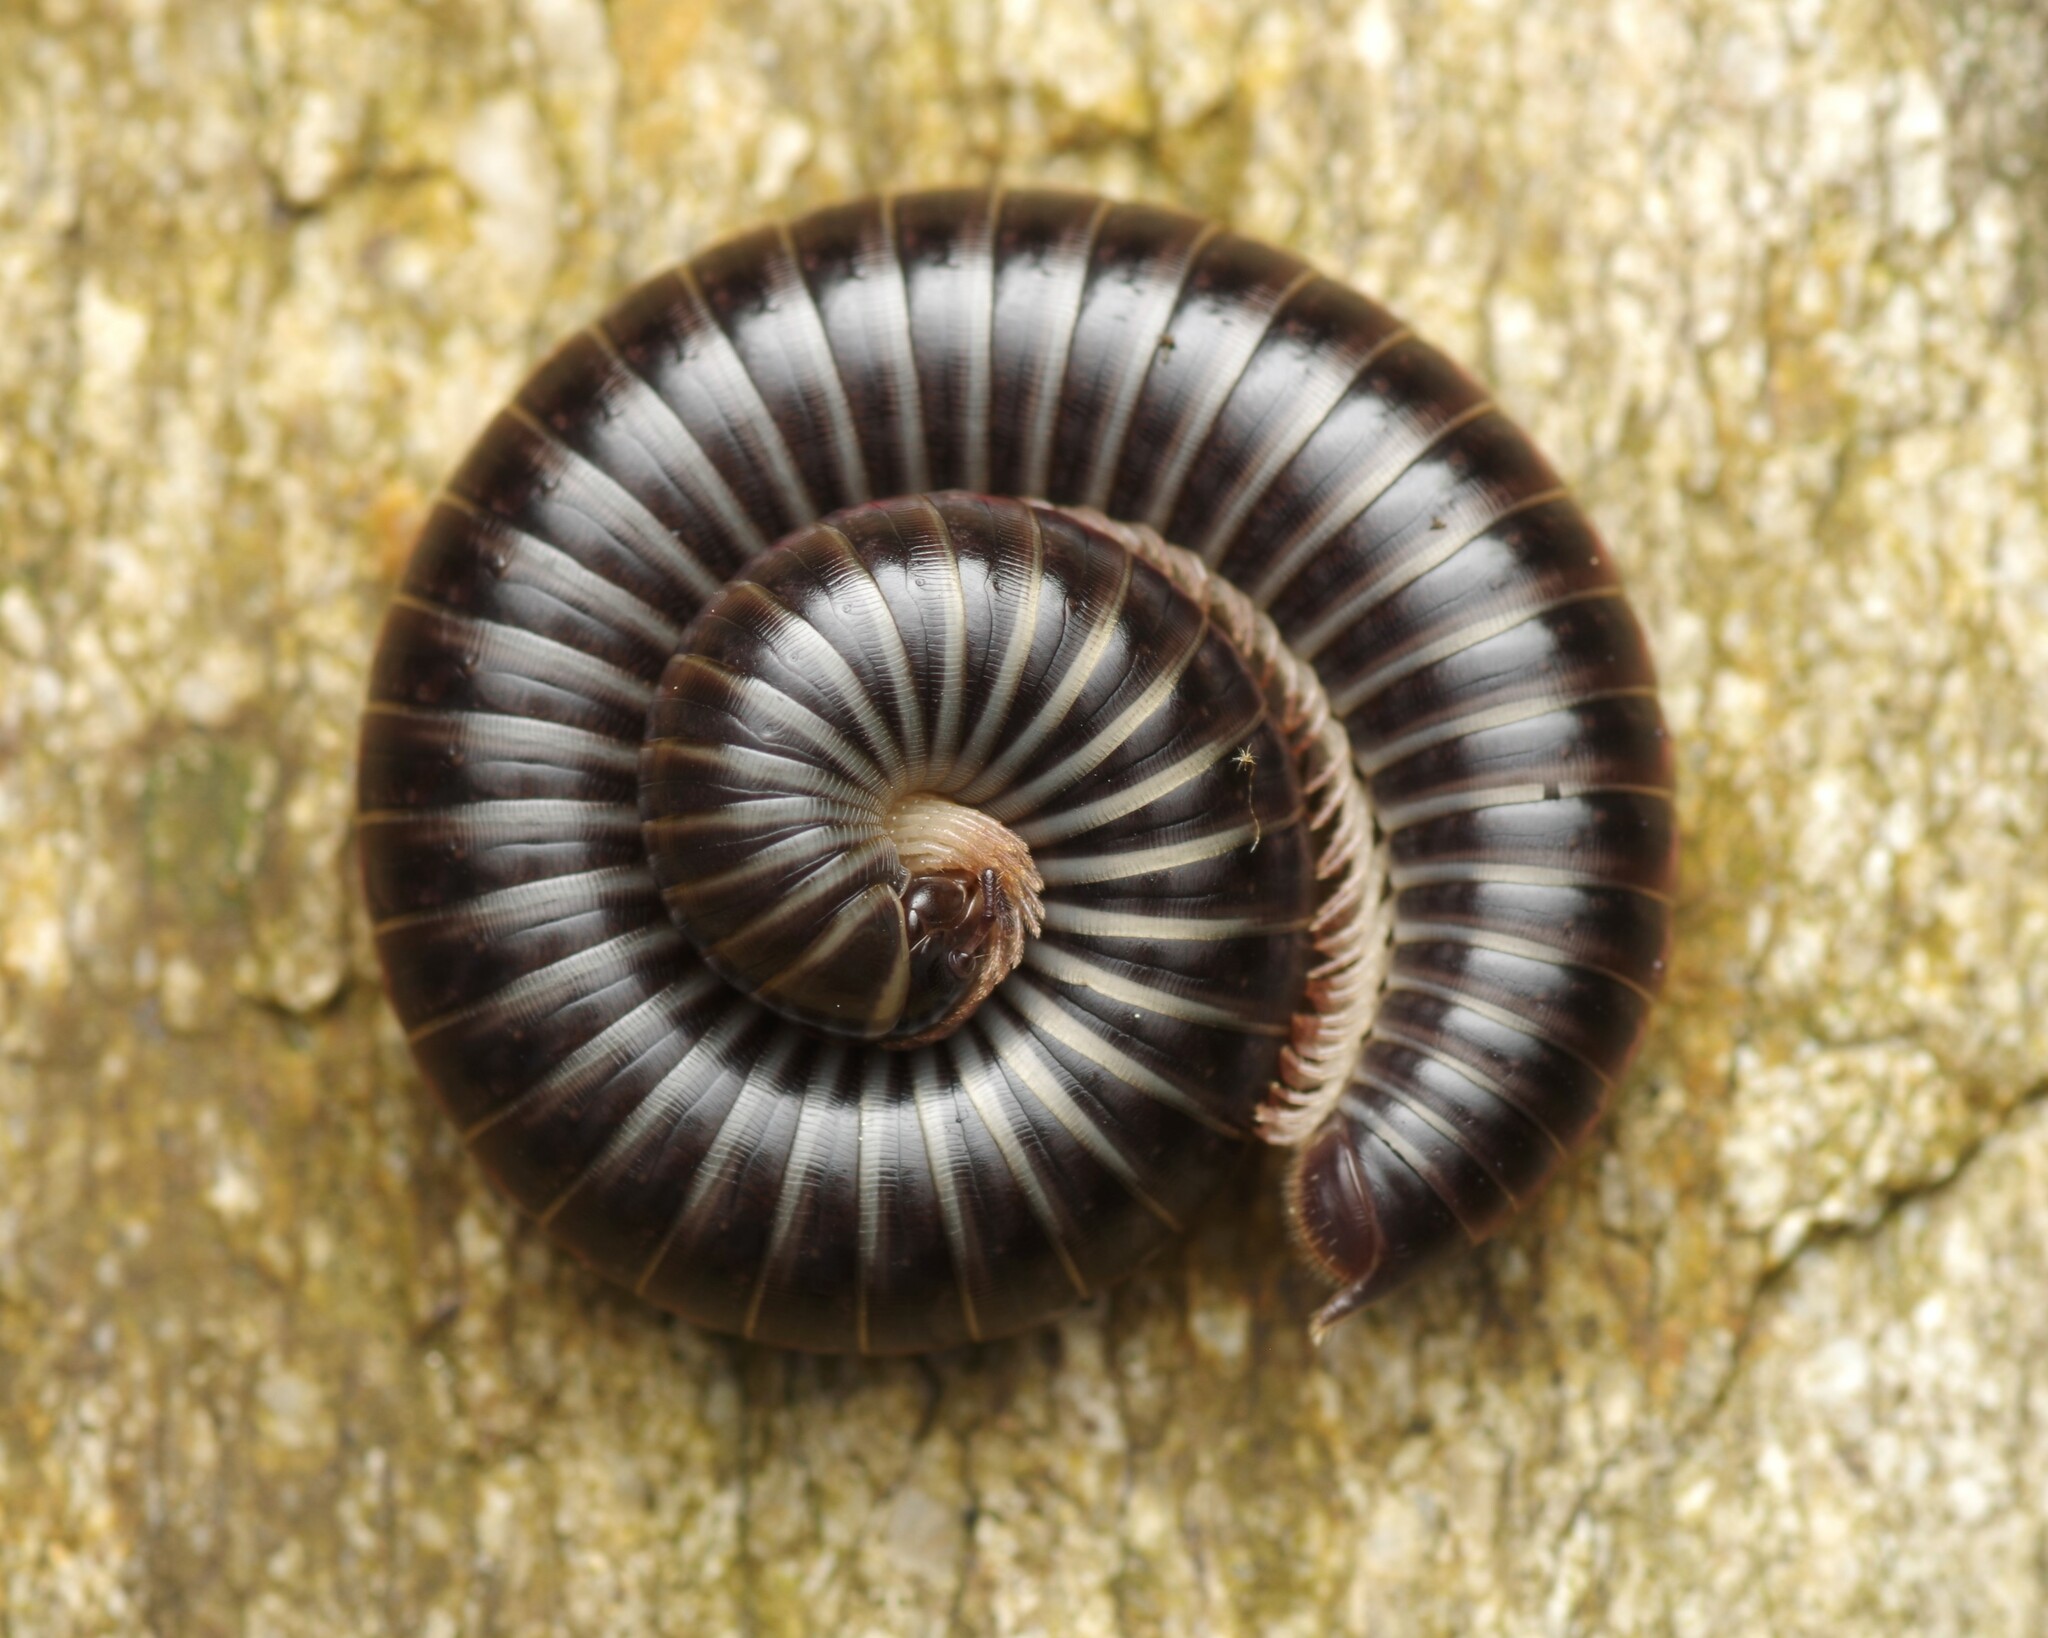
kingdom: Animalia
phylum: Arthropoda
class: Diplopoda
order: Julida
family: Julidae
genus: Ommatoiulus
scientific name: Ommatoiulus sabulosus
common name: Striped millipede
